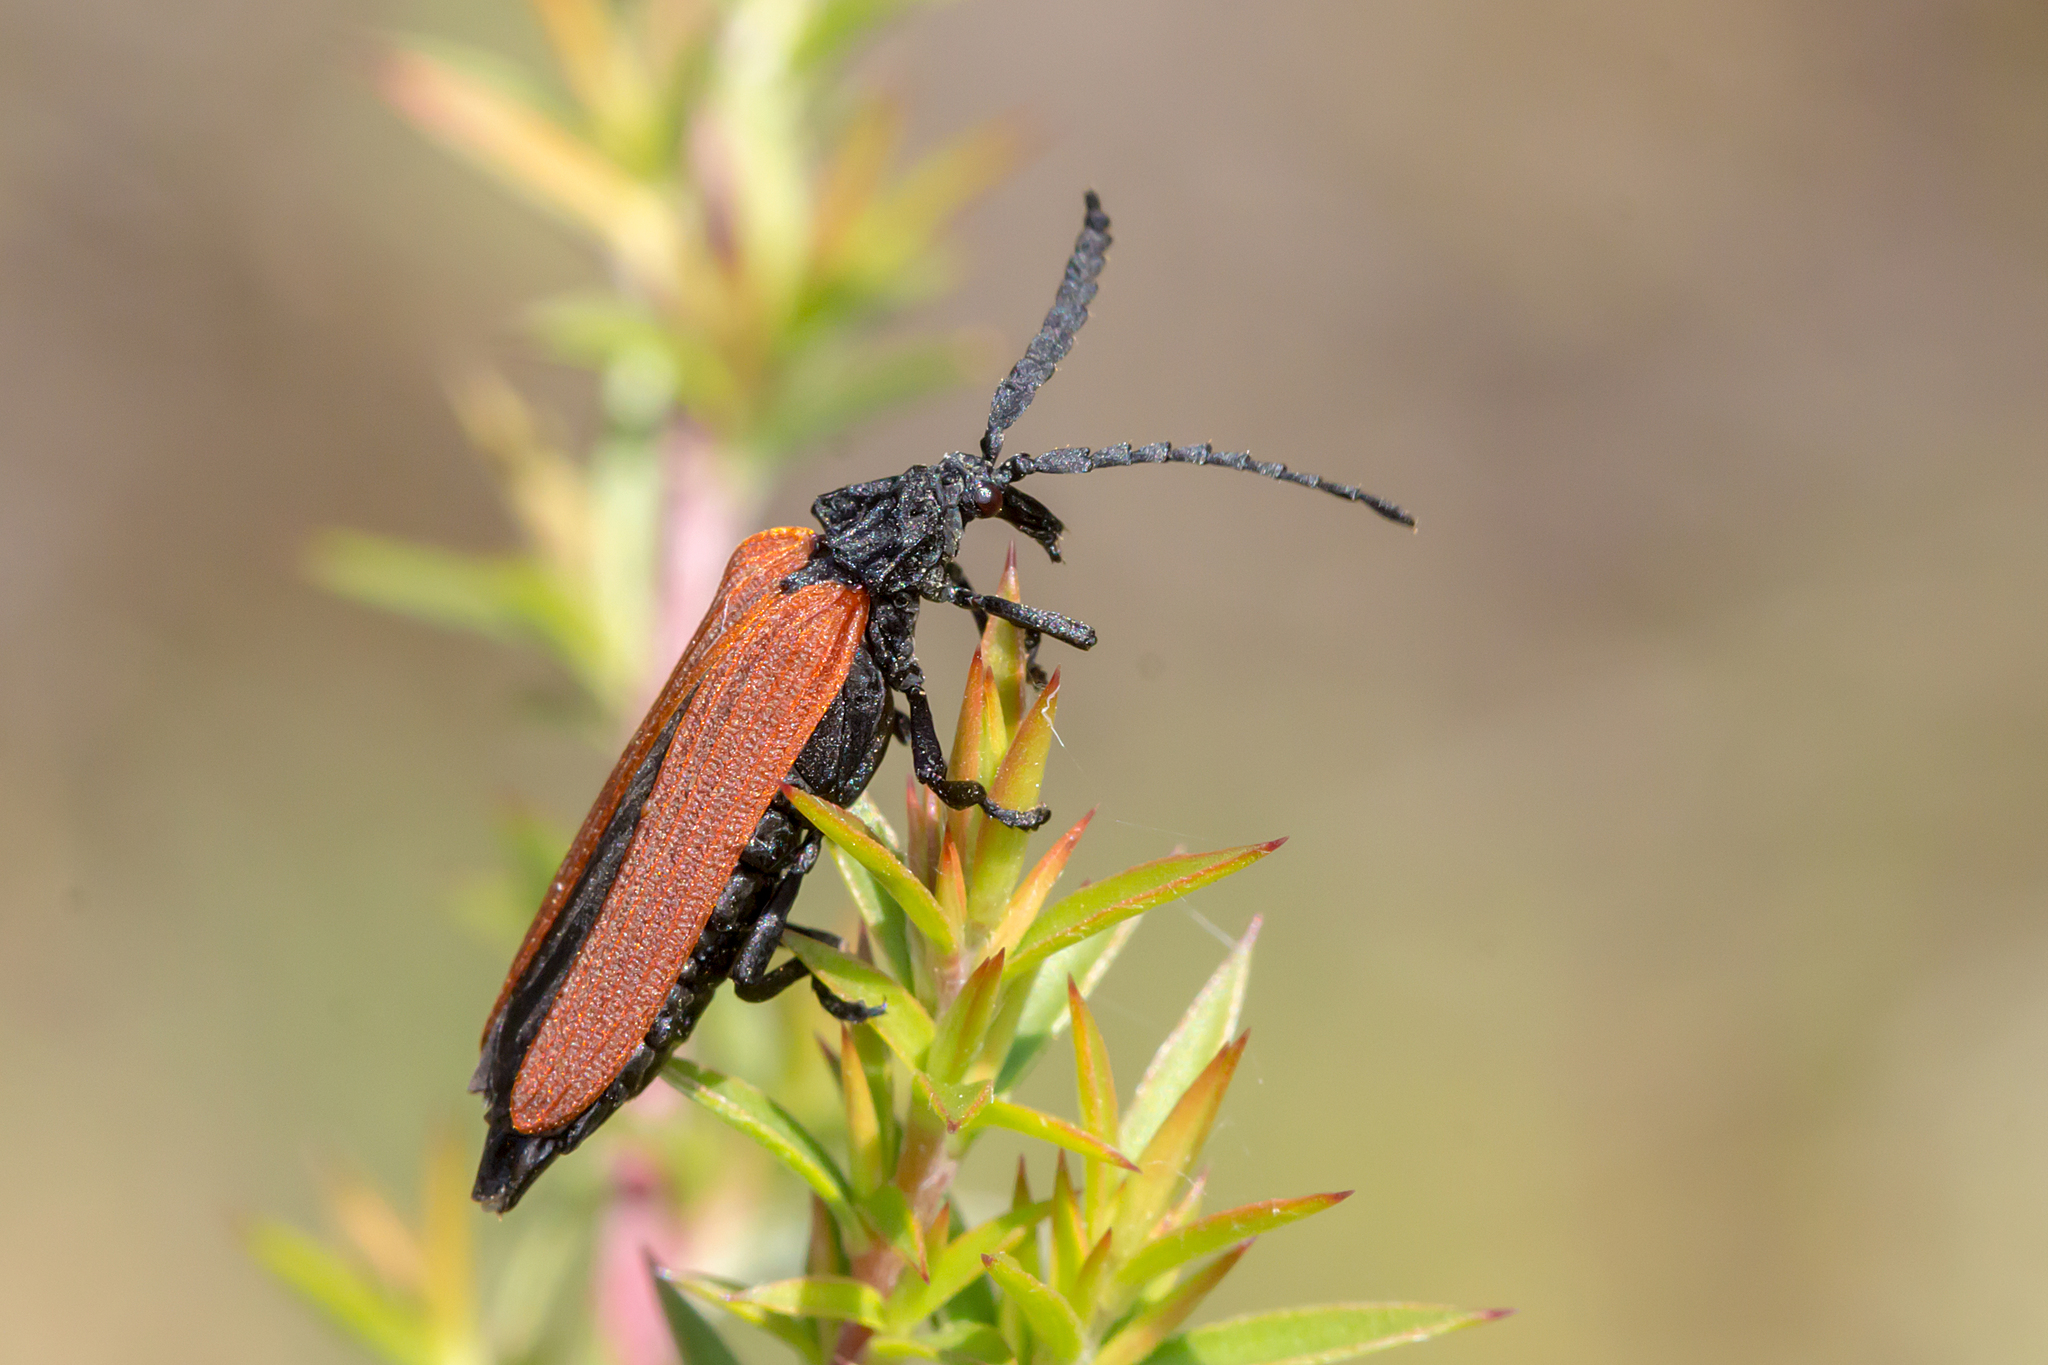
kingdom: Animalia
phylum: Arthropoda
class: Insecta
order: Coleoptera
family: Lycidae
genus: Porrostoma
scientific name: Porrostoma rhipidium
